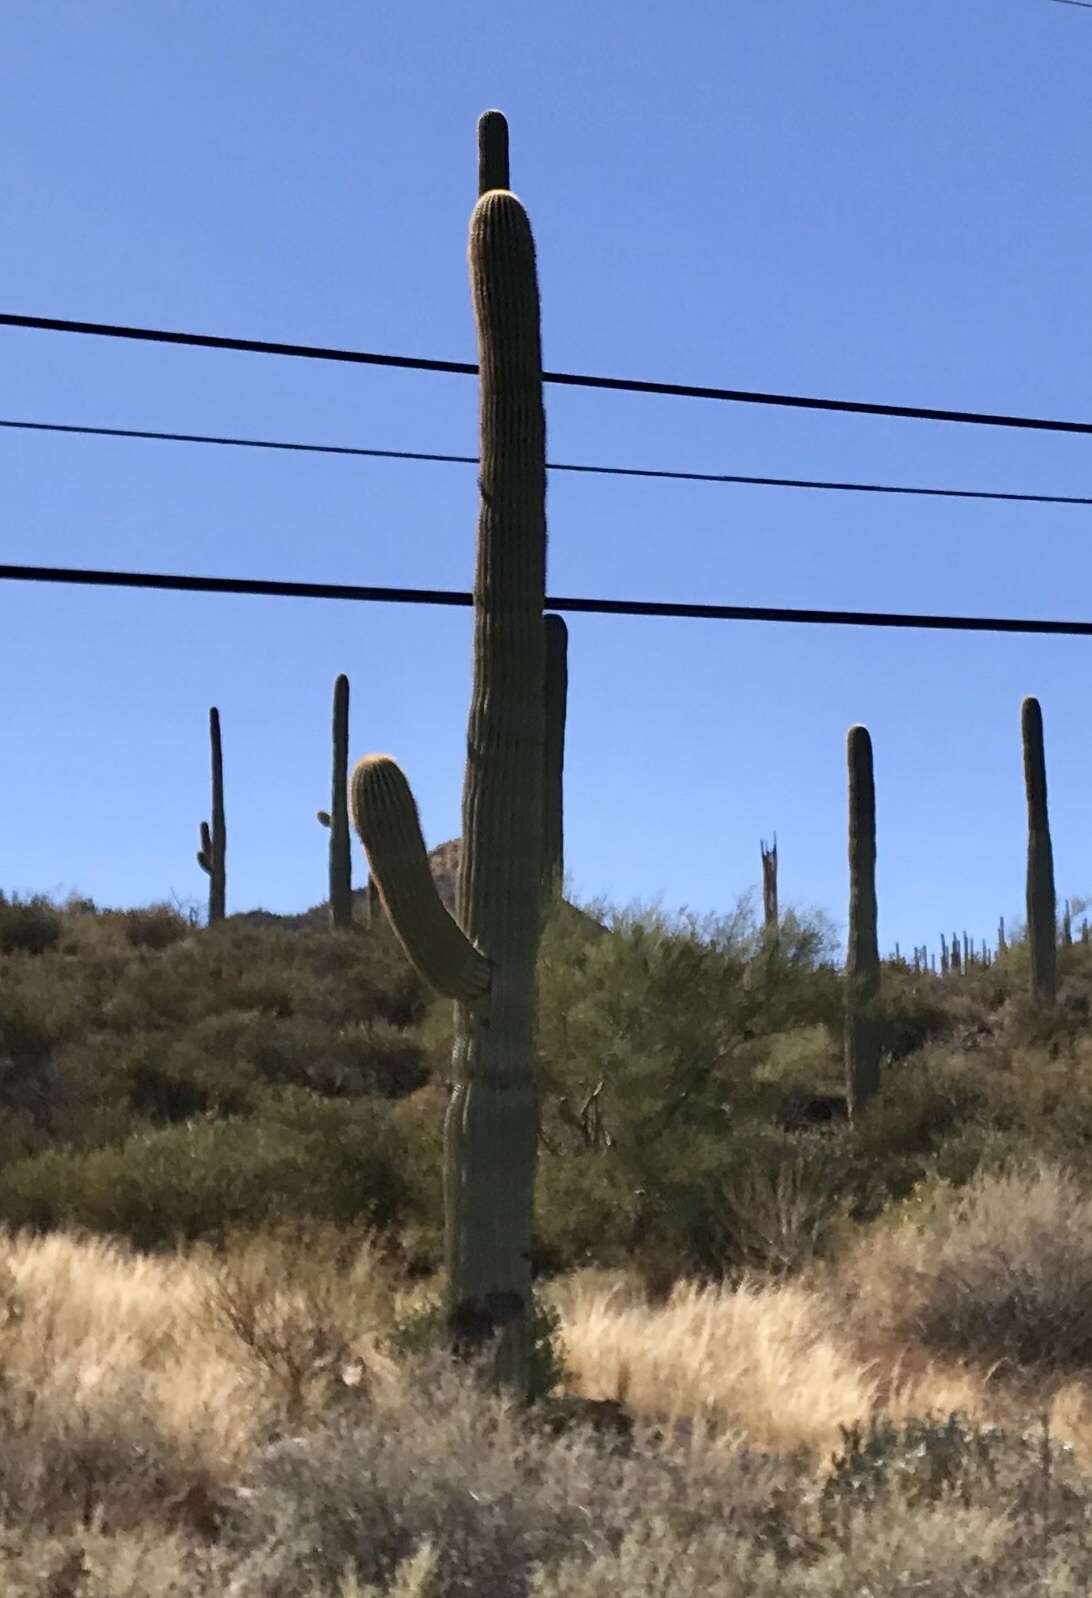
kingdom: Plantae
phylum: Tracheophyta
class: Magnoliopsida
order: Caryophyllales
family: Cactaceae
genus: Carnegiea
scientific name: Carnegiea gigantea
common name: Saguaro
